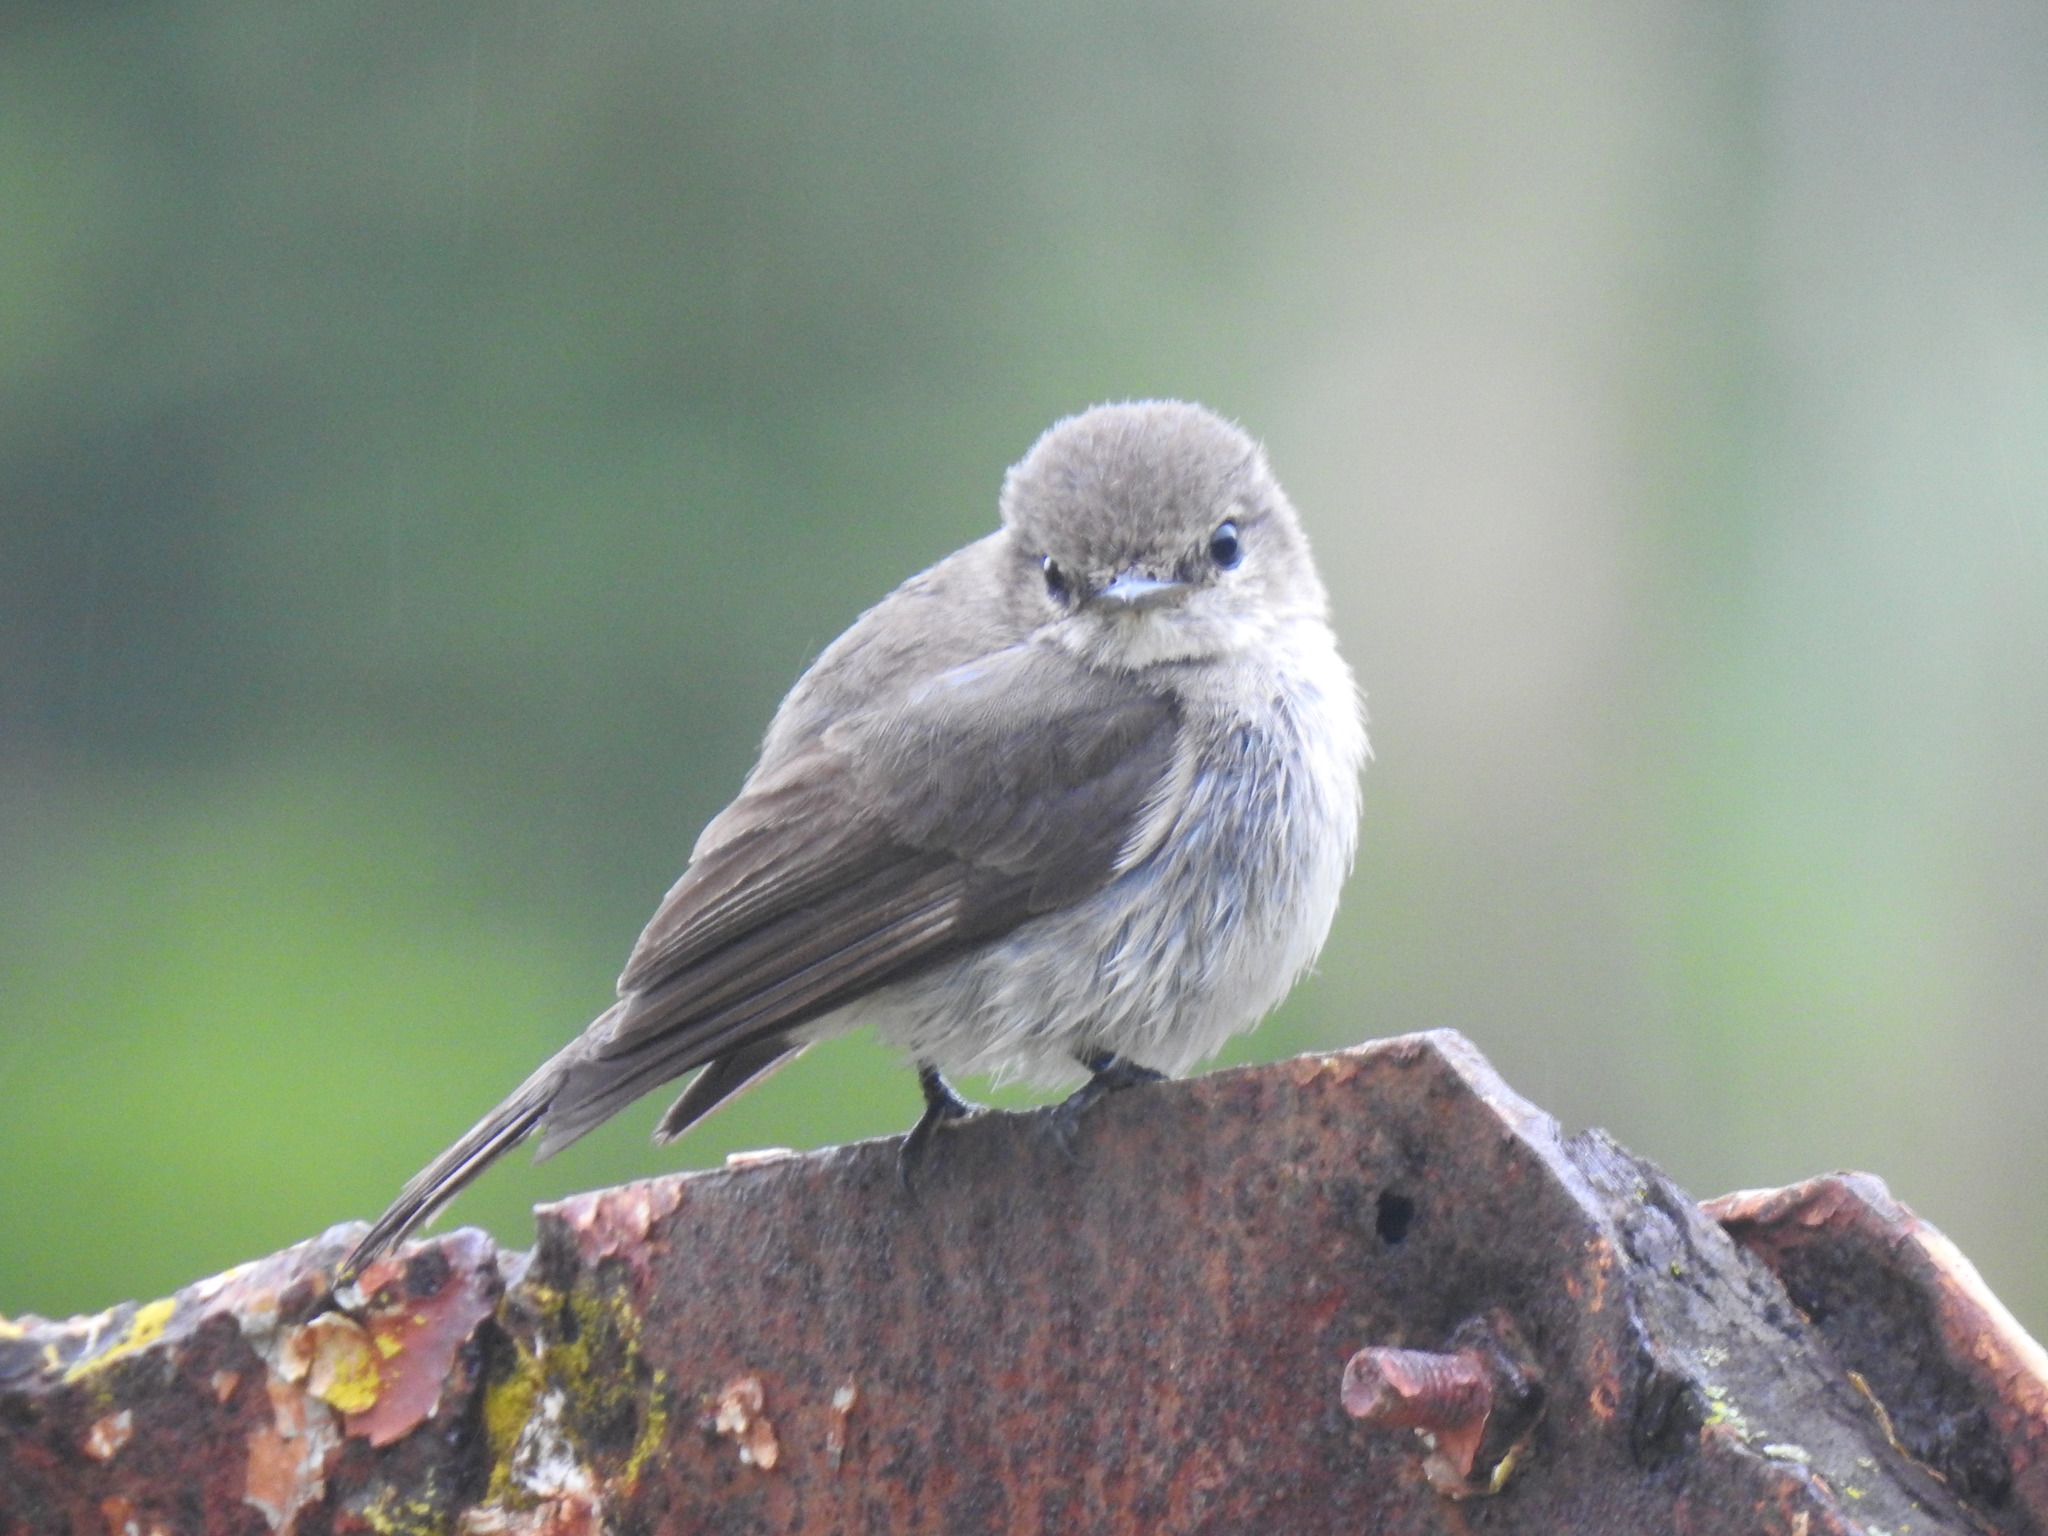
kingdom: Animalia
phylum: Chordata
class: Aves
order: Passeriformes
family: Muscicapidae
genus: Muscicapa
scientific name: Muscicapa adusta
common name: African dusky flycatcher
